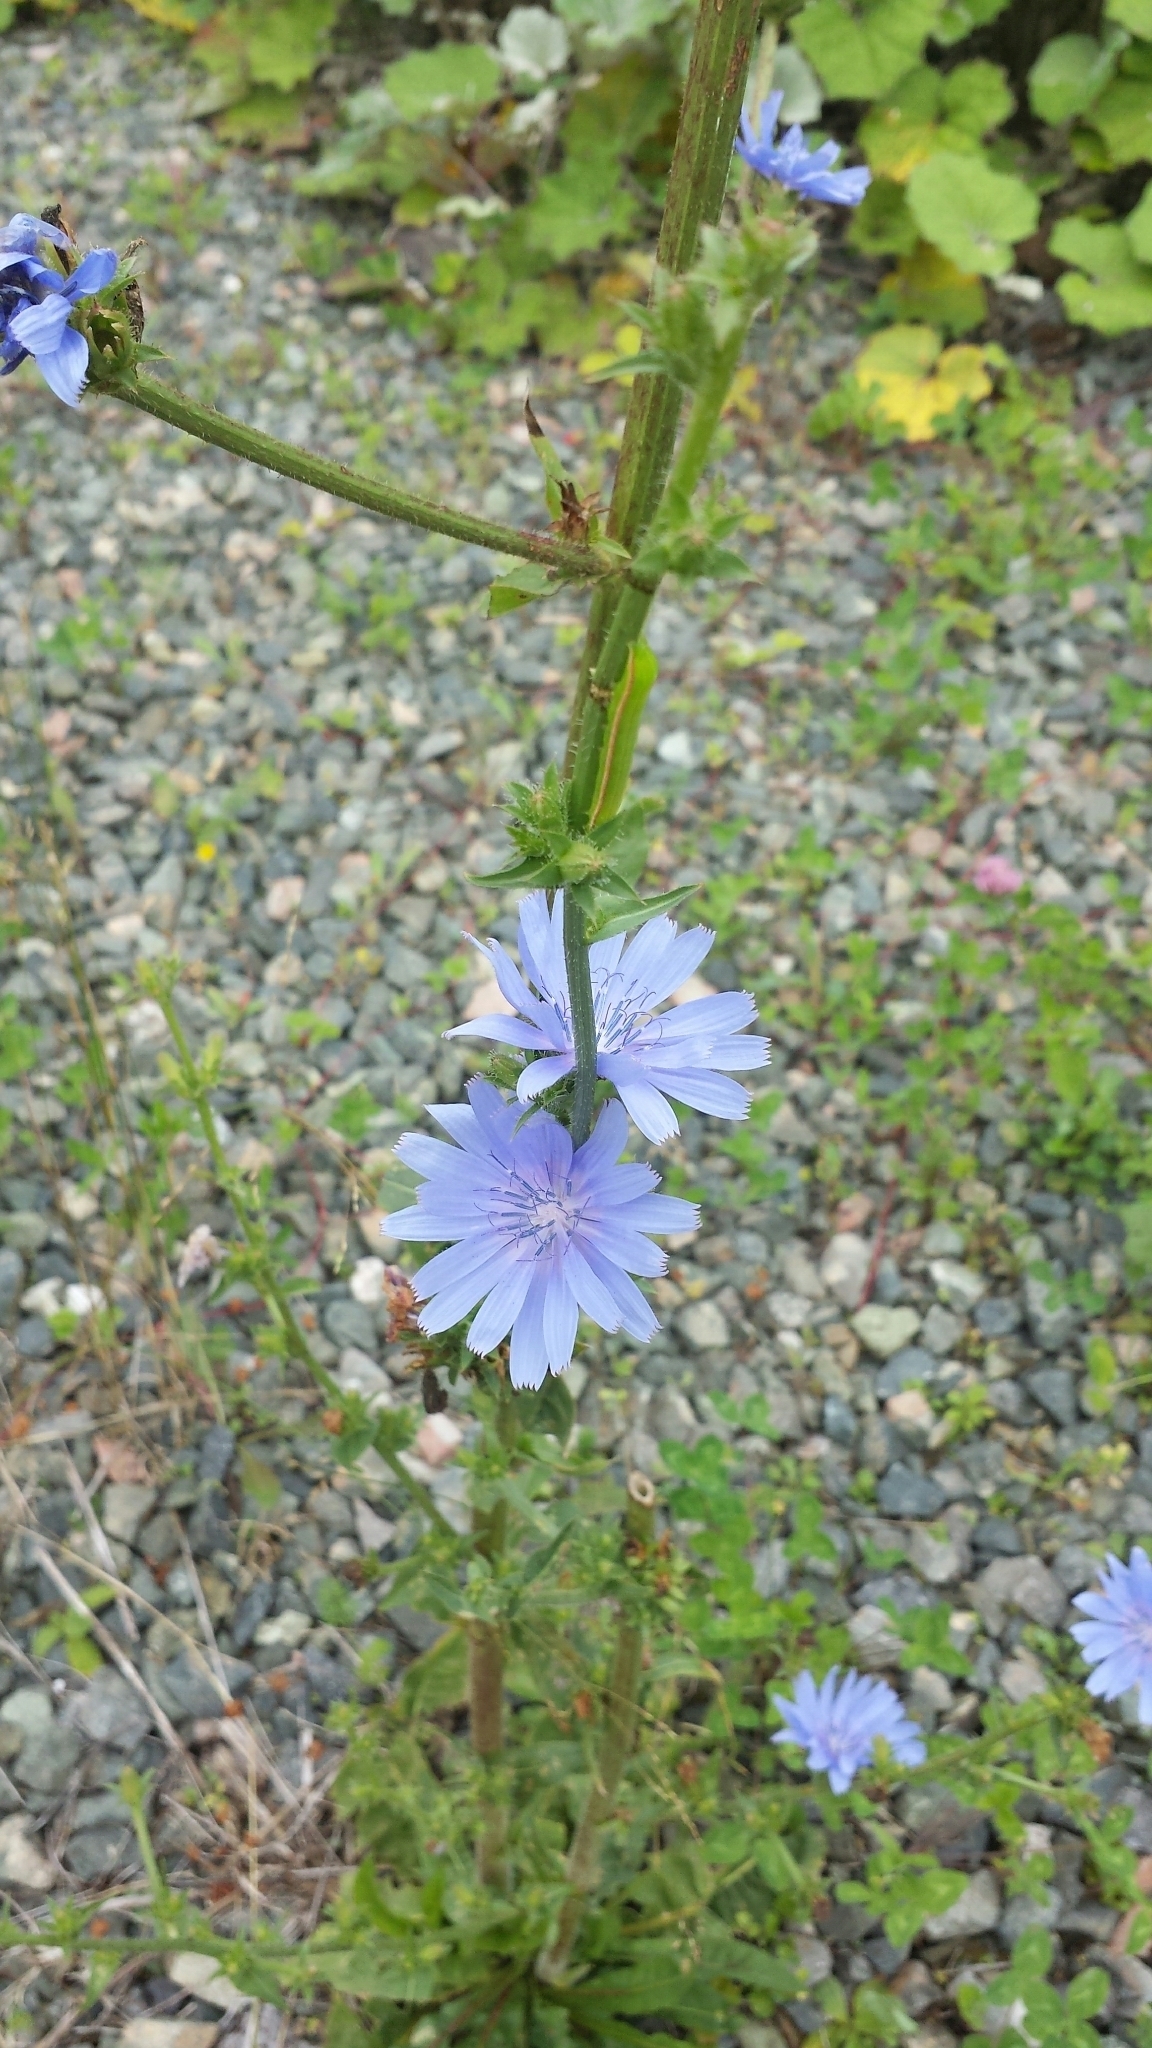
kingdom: Plantae
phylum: Tracheophyta
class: Magnoliopsida
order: Asterales
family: Asteraceae
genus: Cichorium
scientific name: Cichorium intybus
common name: Chicory
